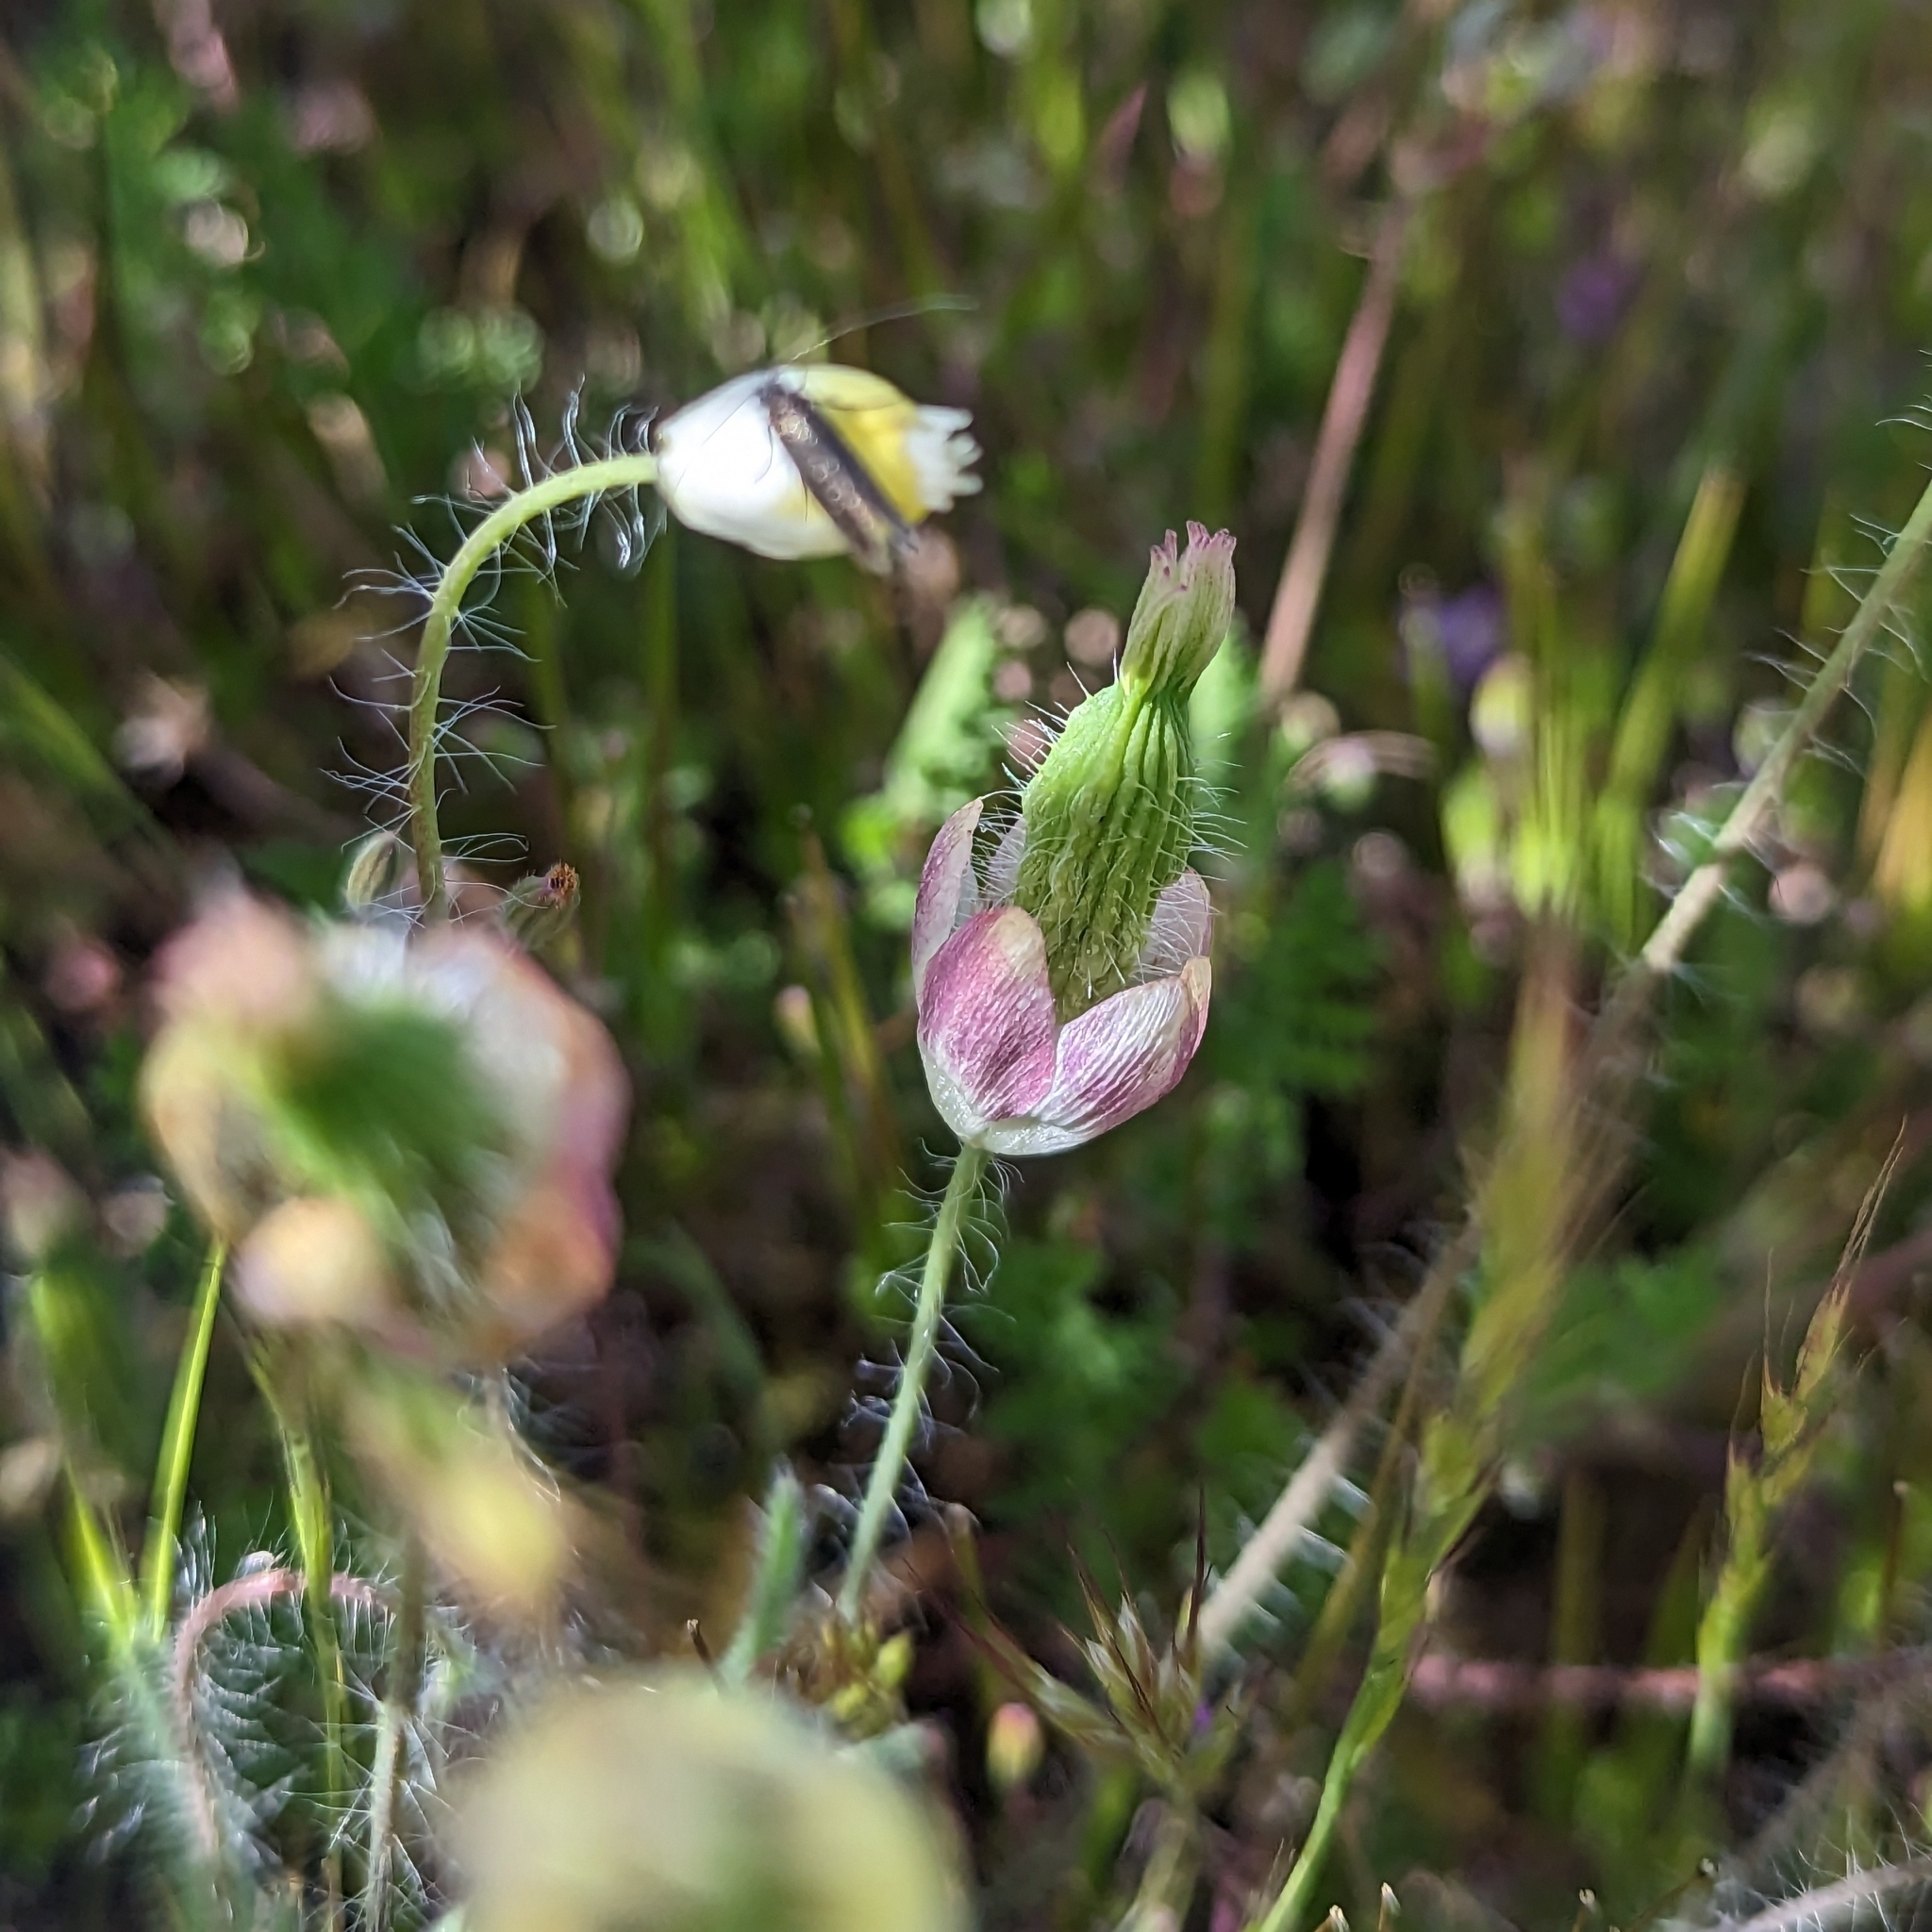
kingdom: Plantae
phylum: Tracheophyta
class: Magnoliopsida
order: Ranunculales
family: Papaveraceae
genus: Platystemon
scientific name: Platystemon californicus
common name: Cream-cups
